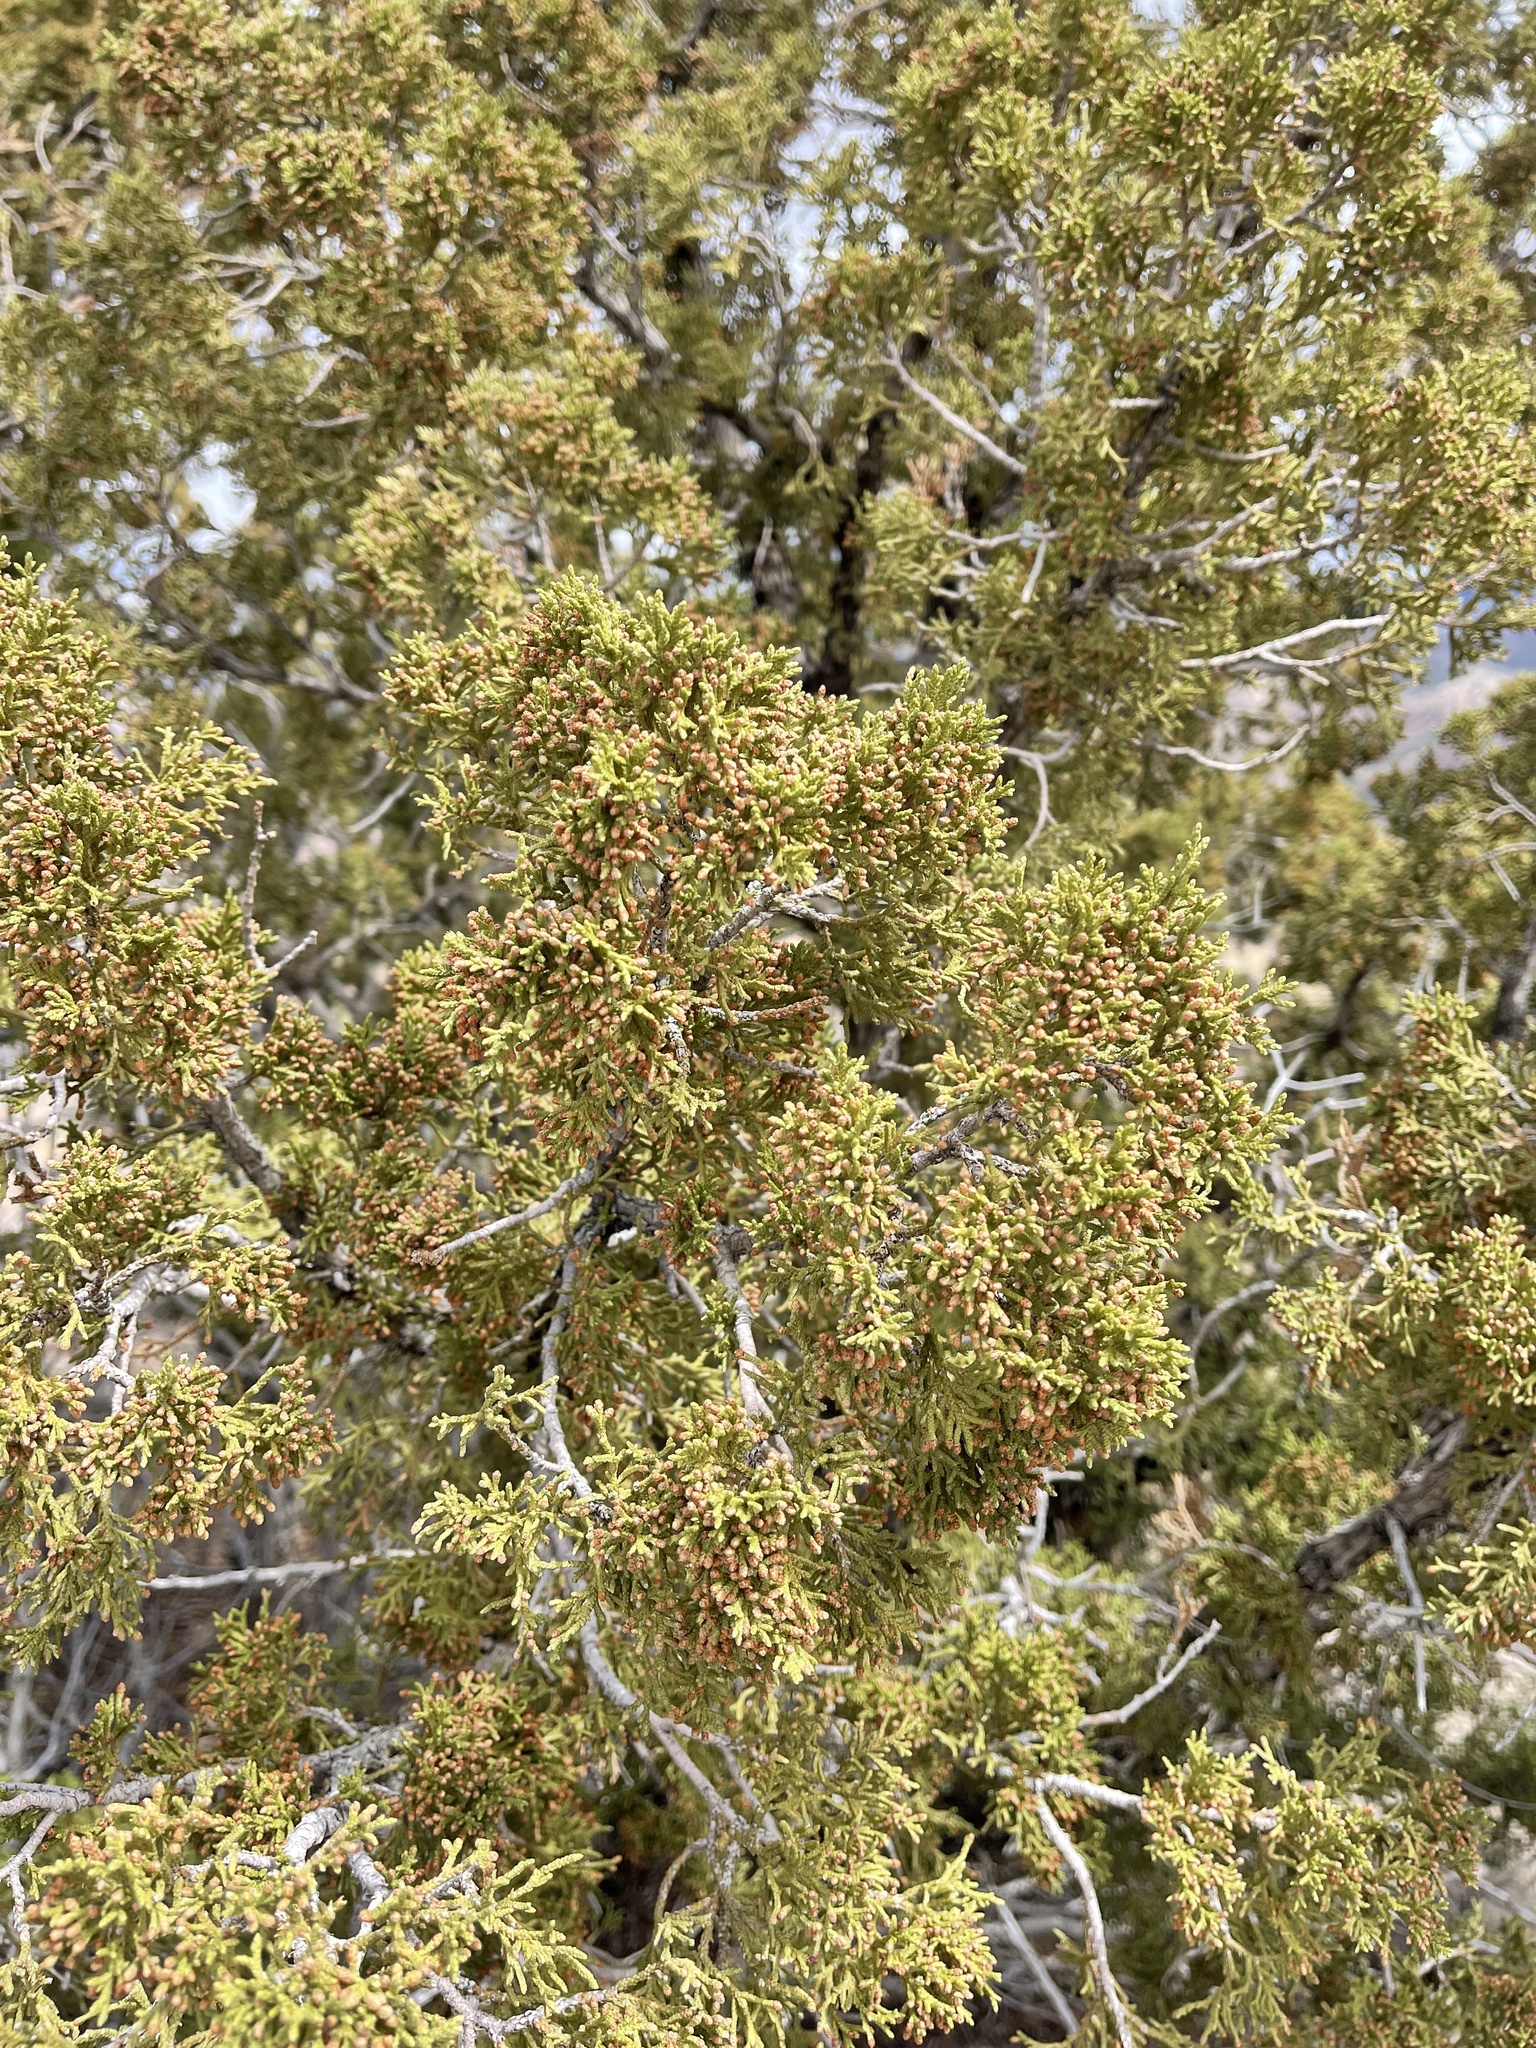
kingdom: Plantae
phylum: Tracheophyta
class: Pinopsida
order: Pinales
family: Cupressaceae
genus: Juniperus
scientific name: Juniperus monosperma
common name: One-seed juniper
